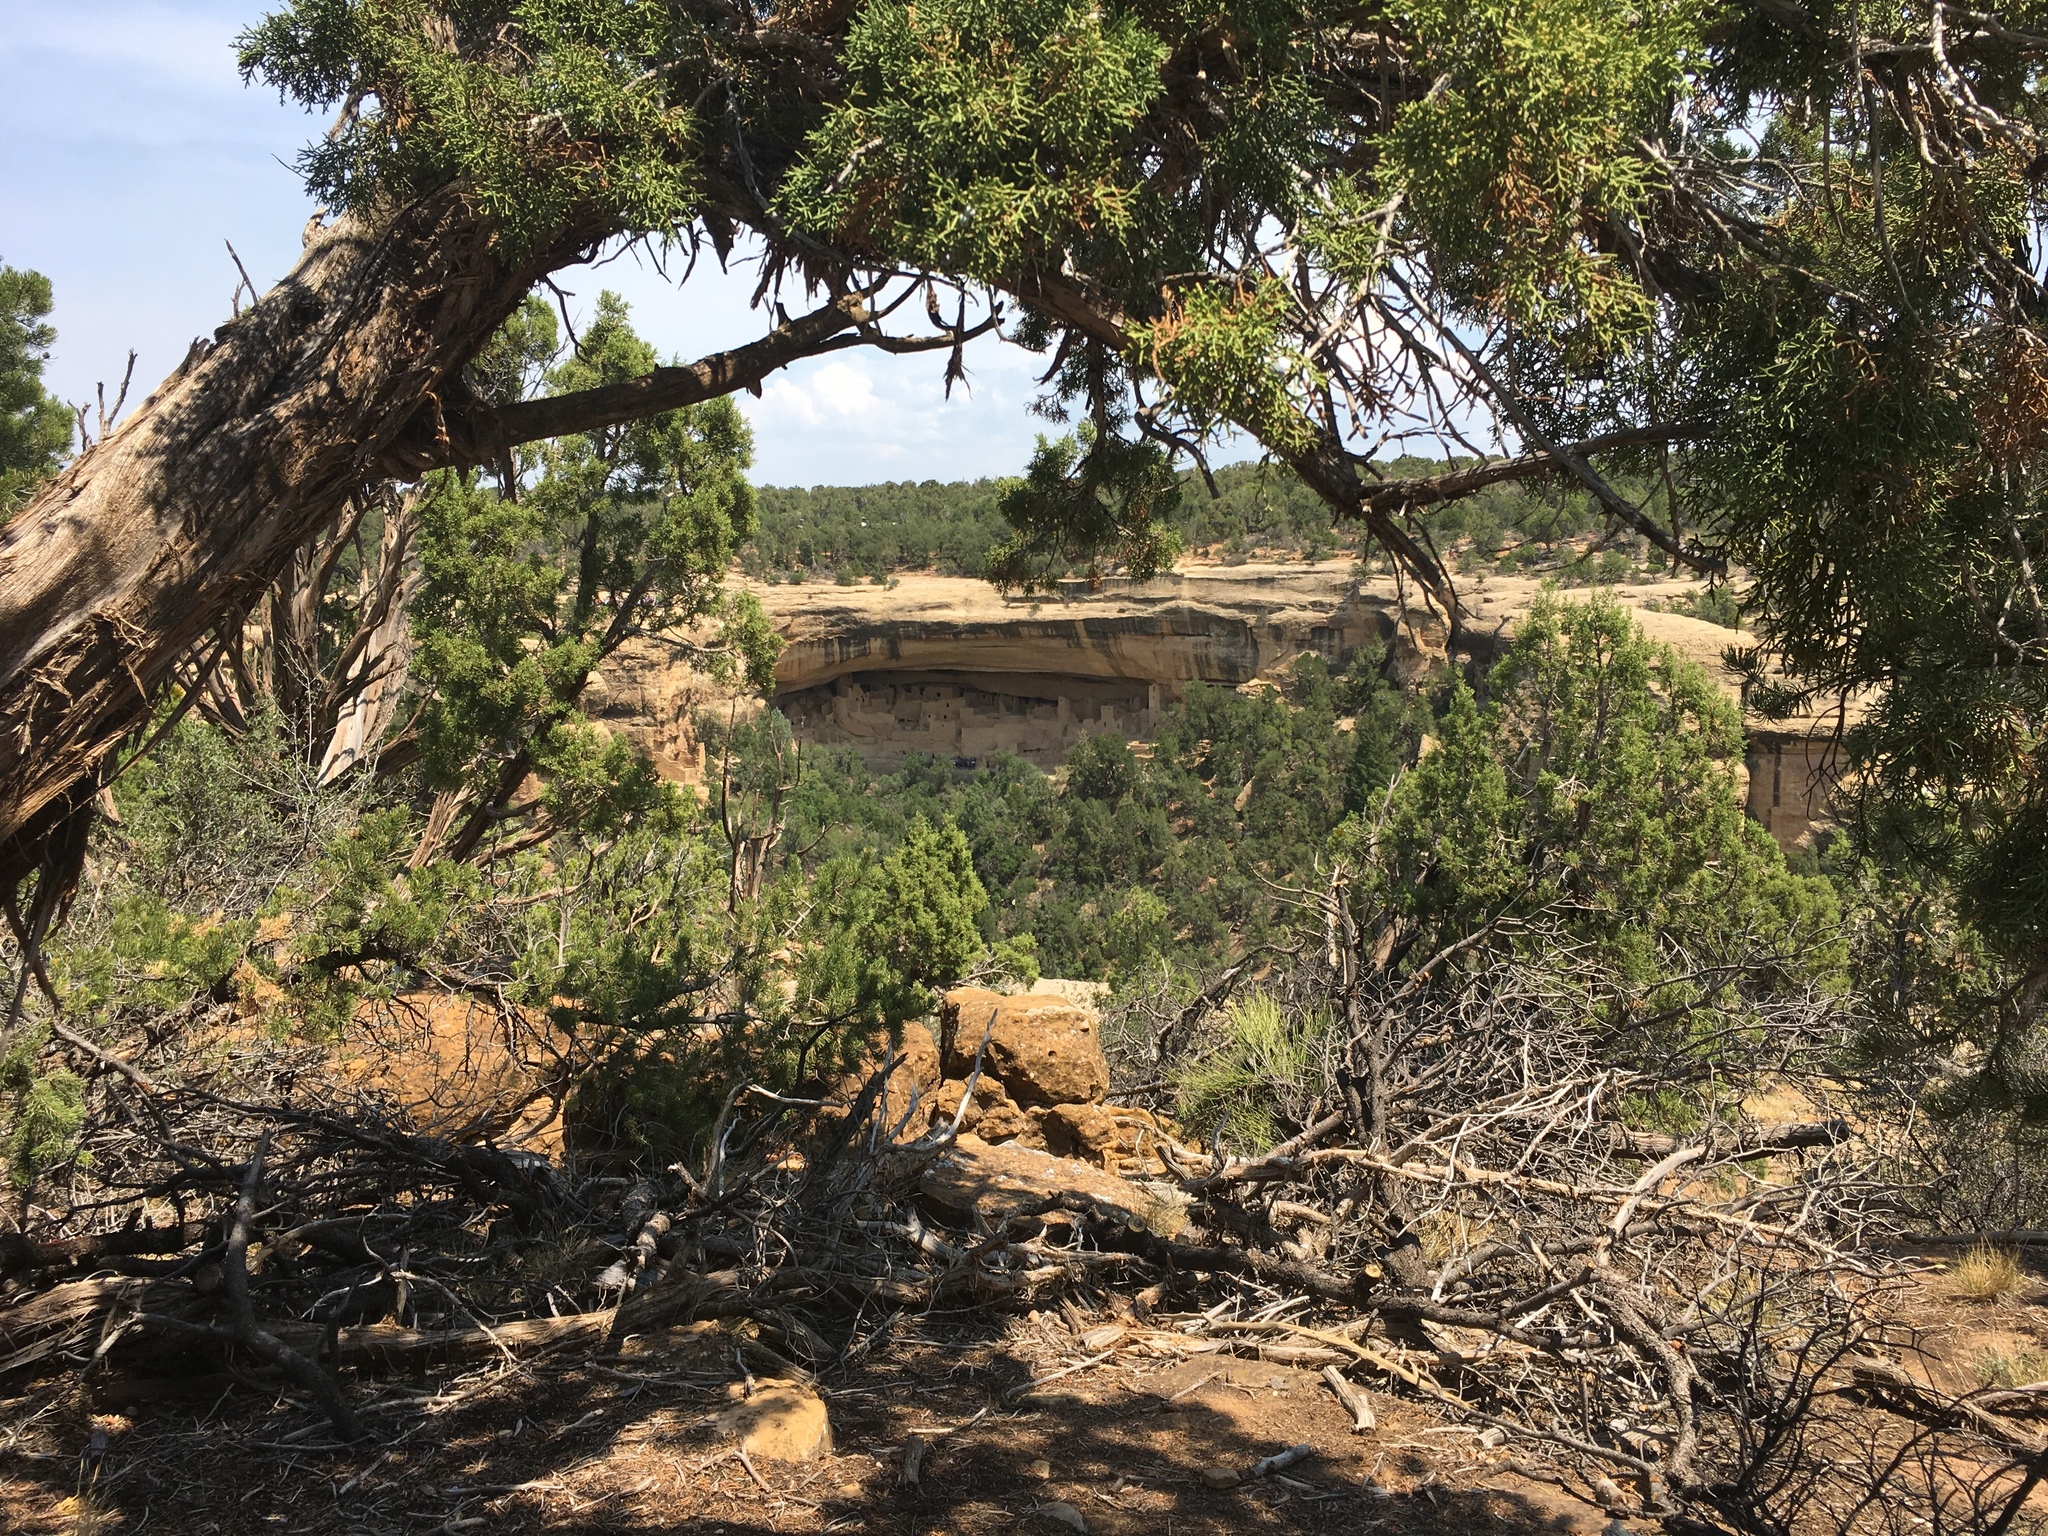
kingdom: Plantae
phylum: Tracheophyta
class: Pinopsida
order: Pinales
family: Cupressaceae
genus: Juniperus
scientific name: Juniperus osteosperma
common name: Utah juniper
